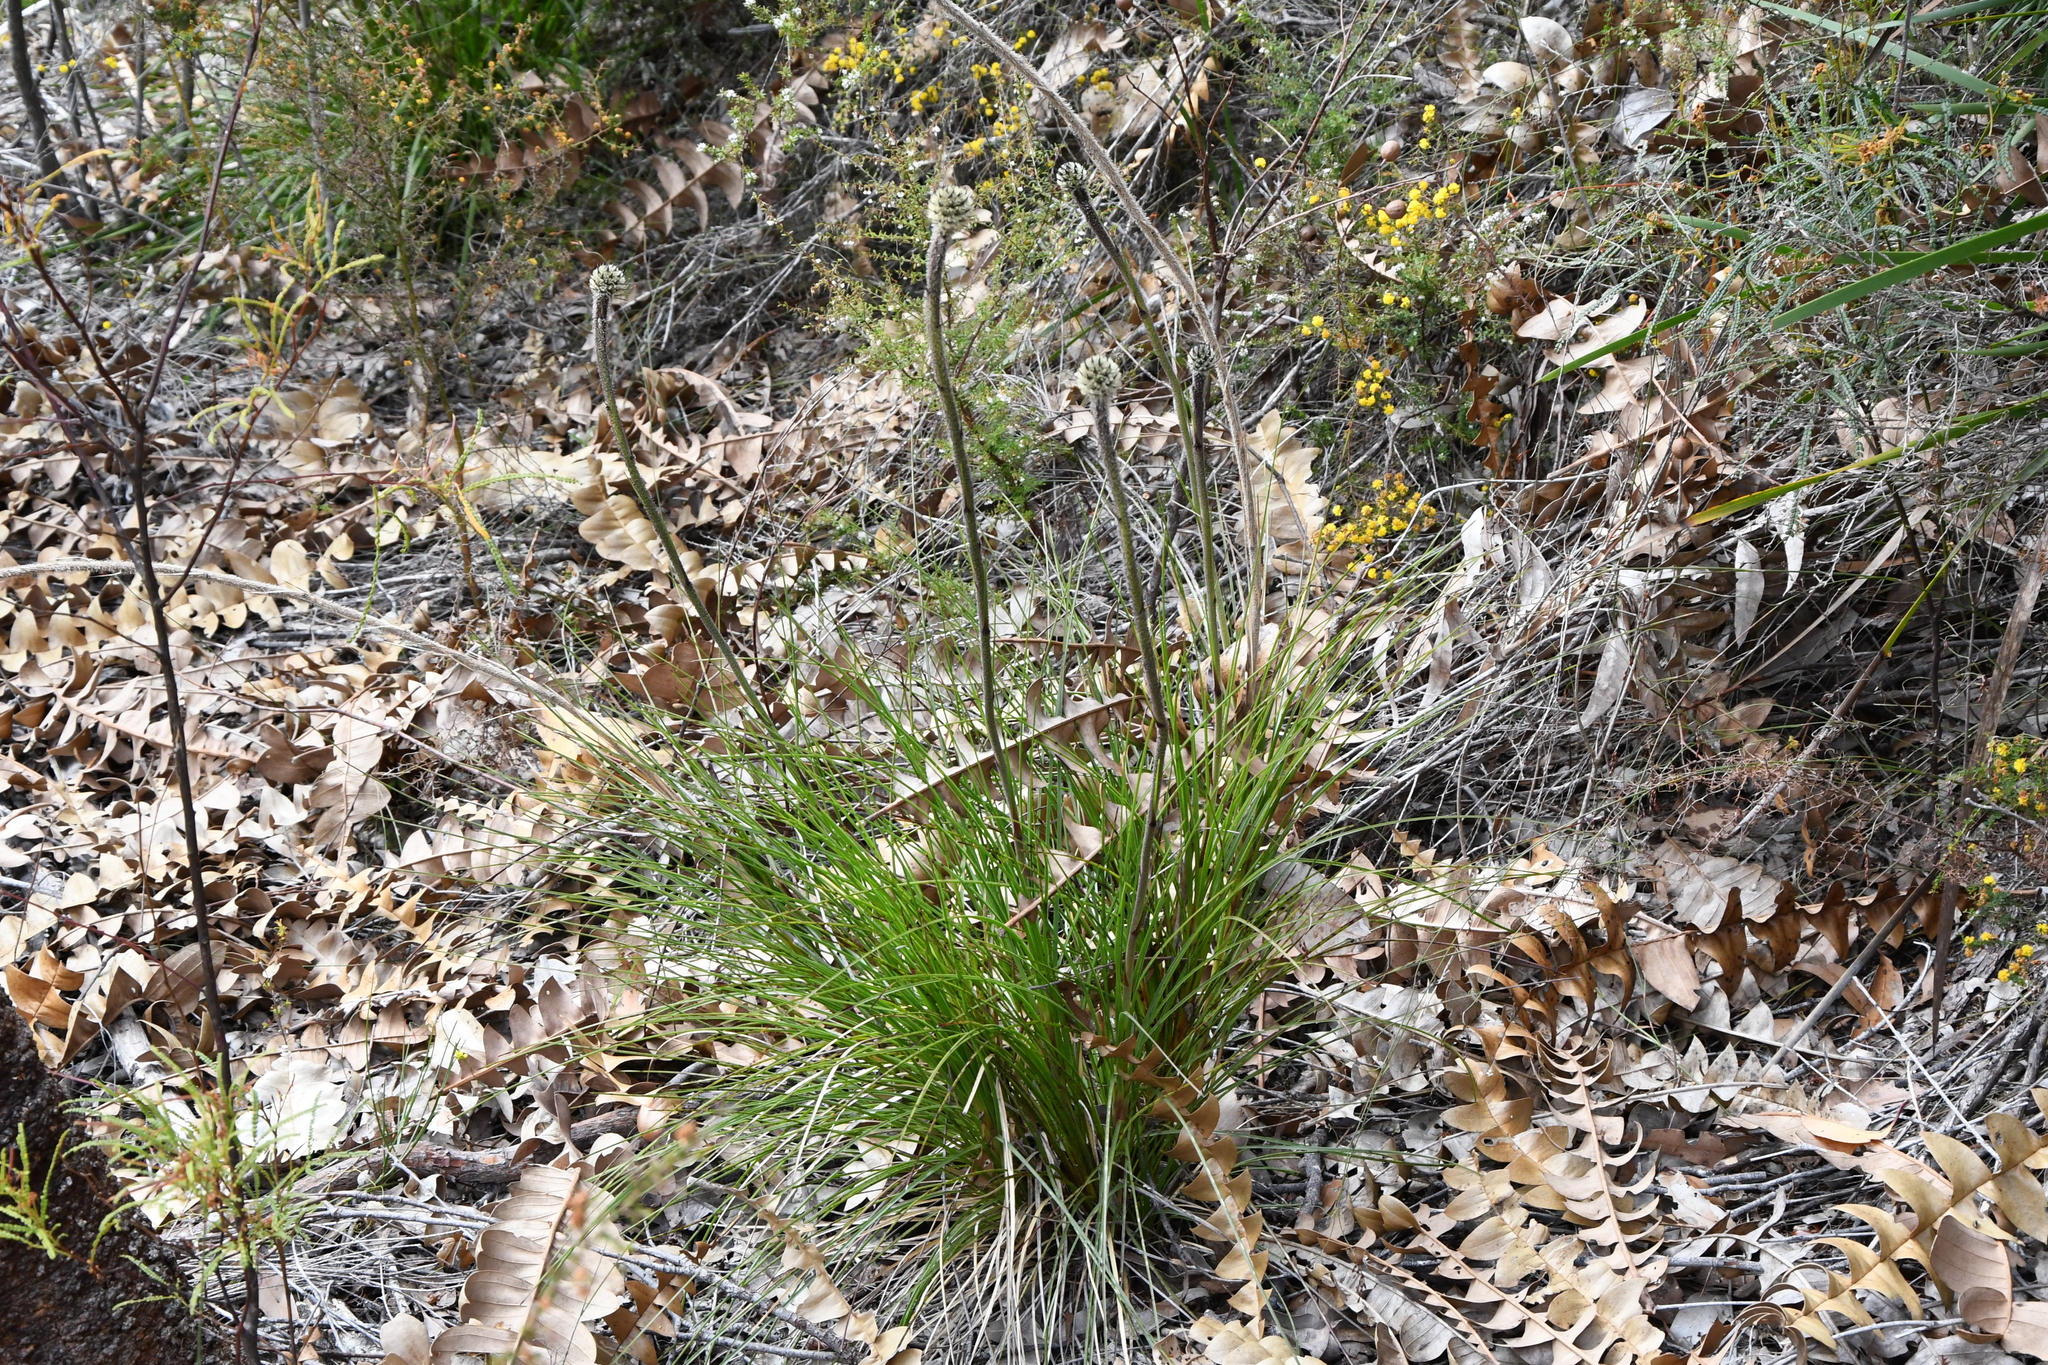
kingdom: Plantae
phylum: Tracheophyta
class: Liliopsida
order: Arecales
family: Dasypogonaceae
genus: Dasypogon
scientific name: Dasypogon bromeliifolius
